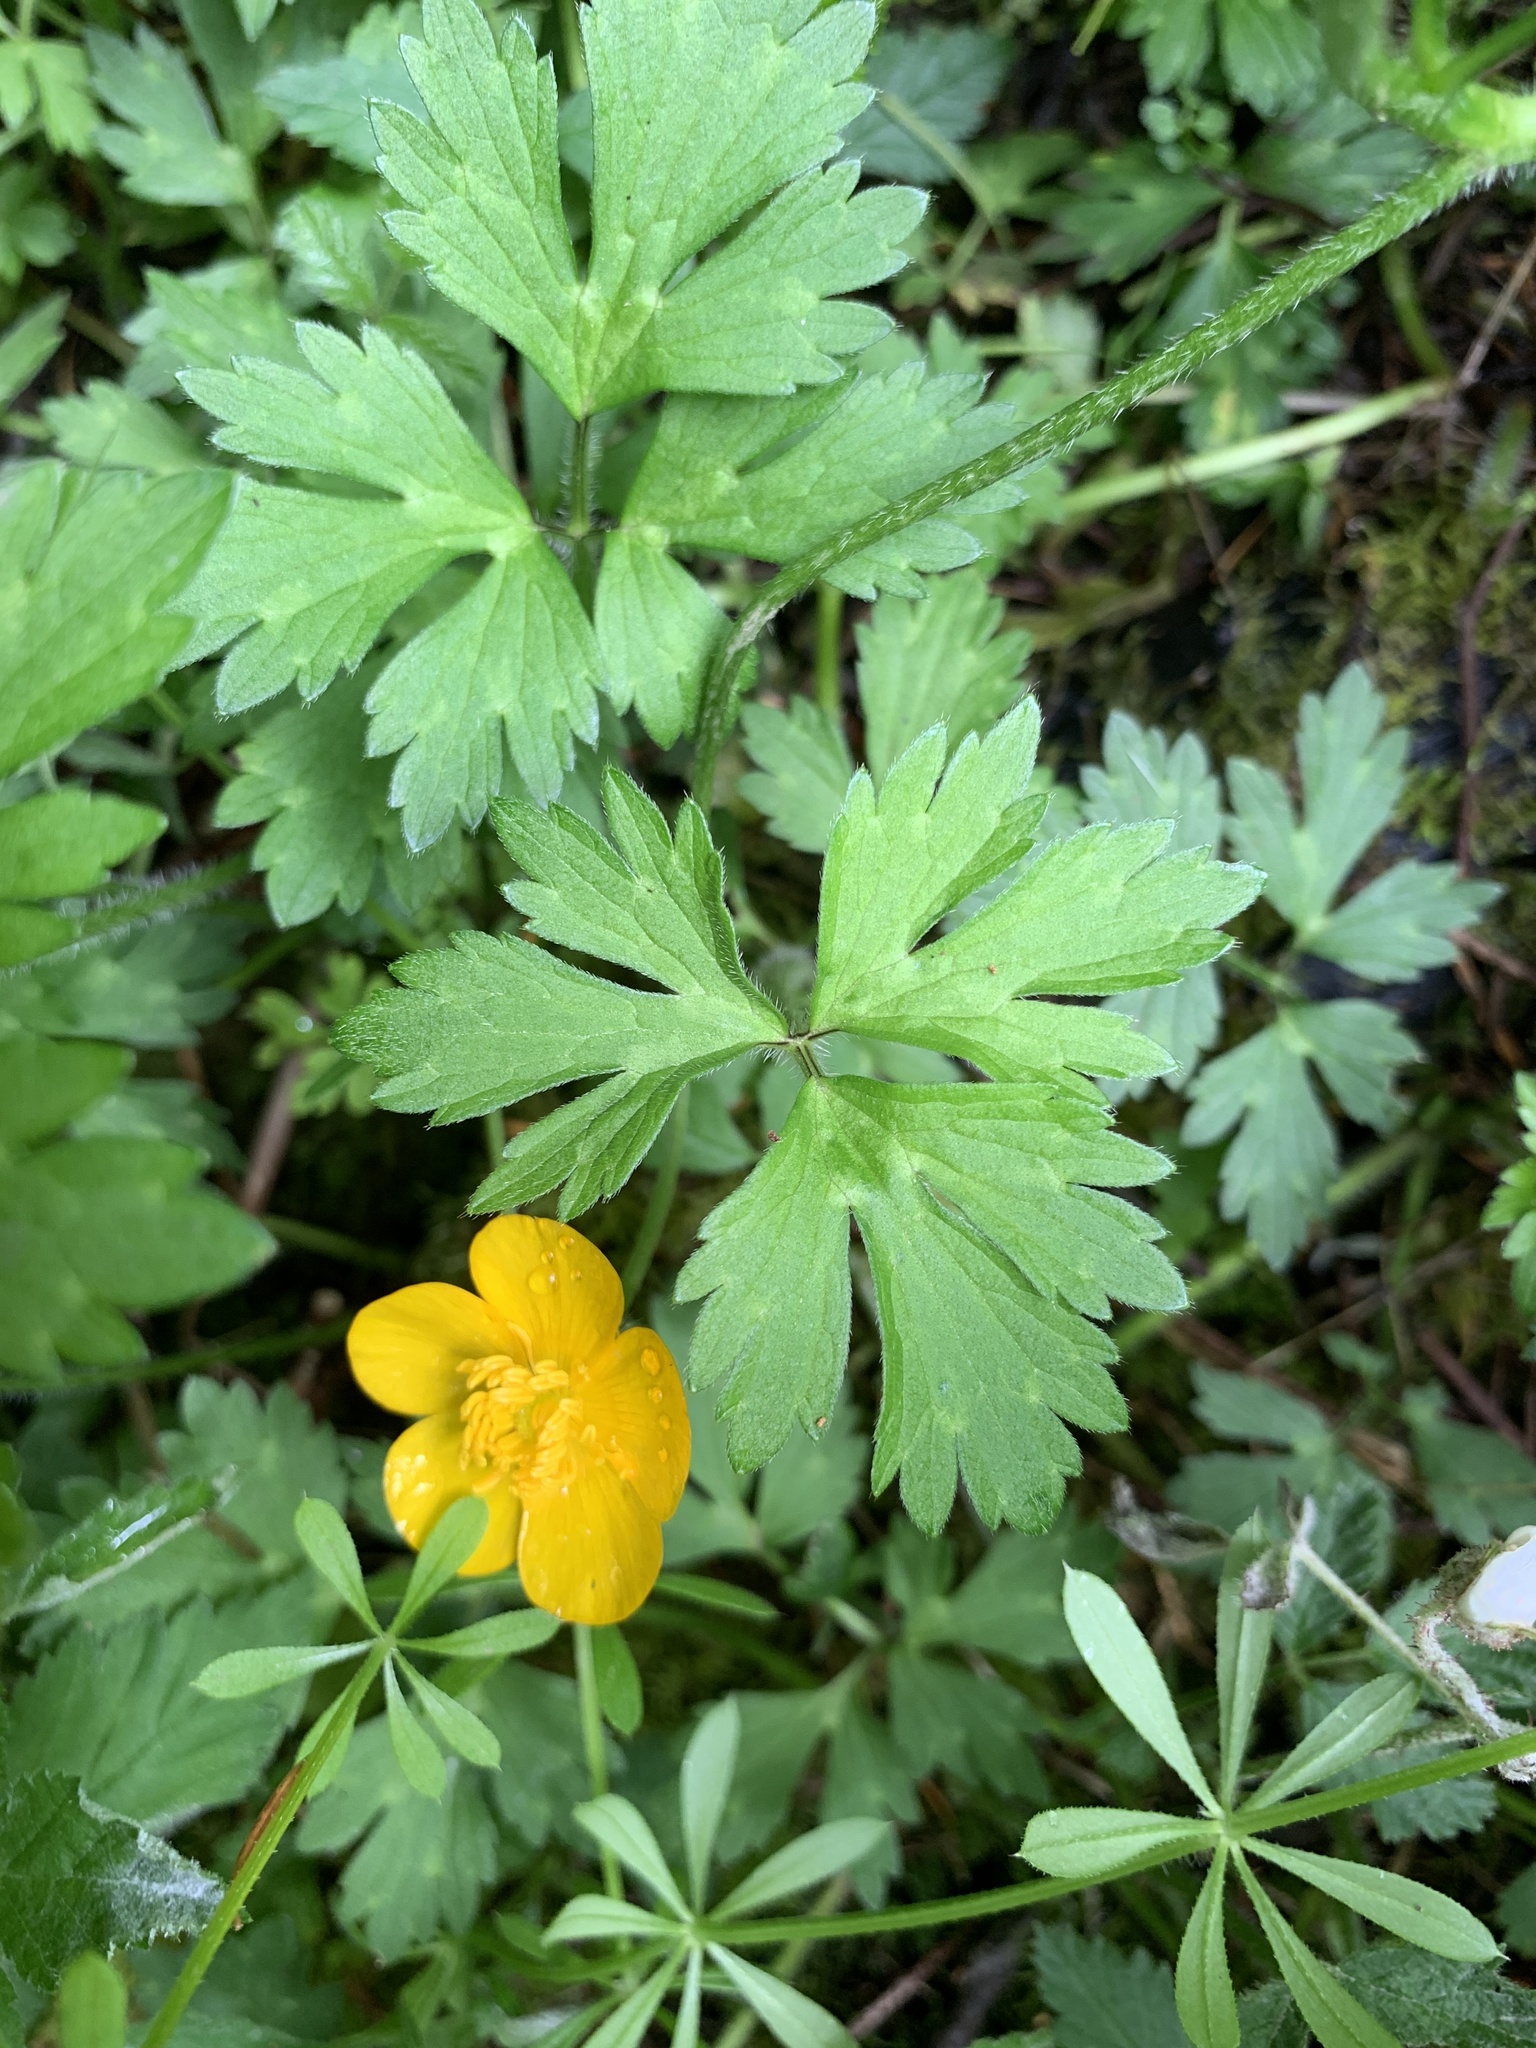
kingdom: Plantae
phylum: Tracheophyta
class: Magnoliopsida
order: Ranunculales
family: Ranunculaceae
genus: Ranunculus
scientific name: Ranunculus repens
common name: Creeping buttercup
